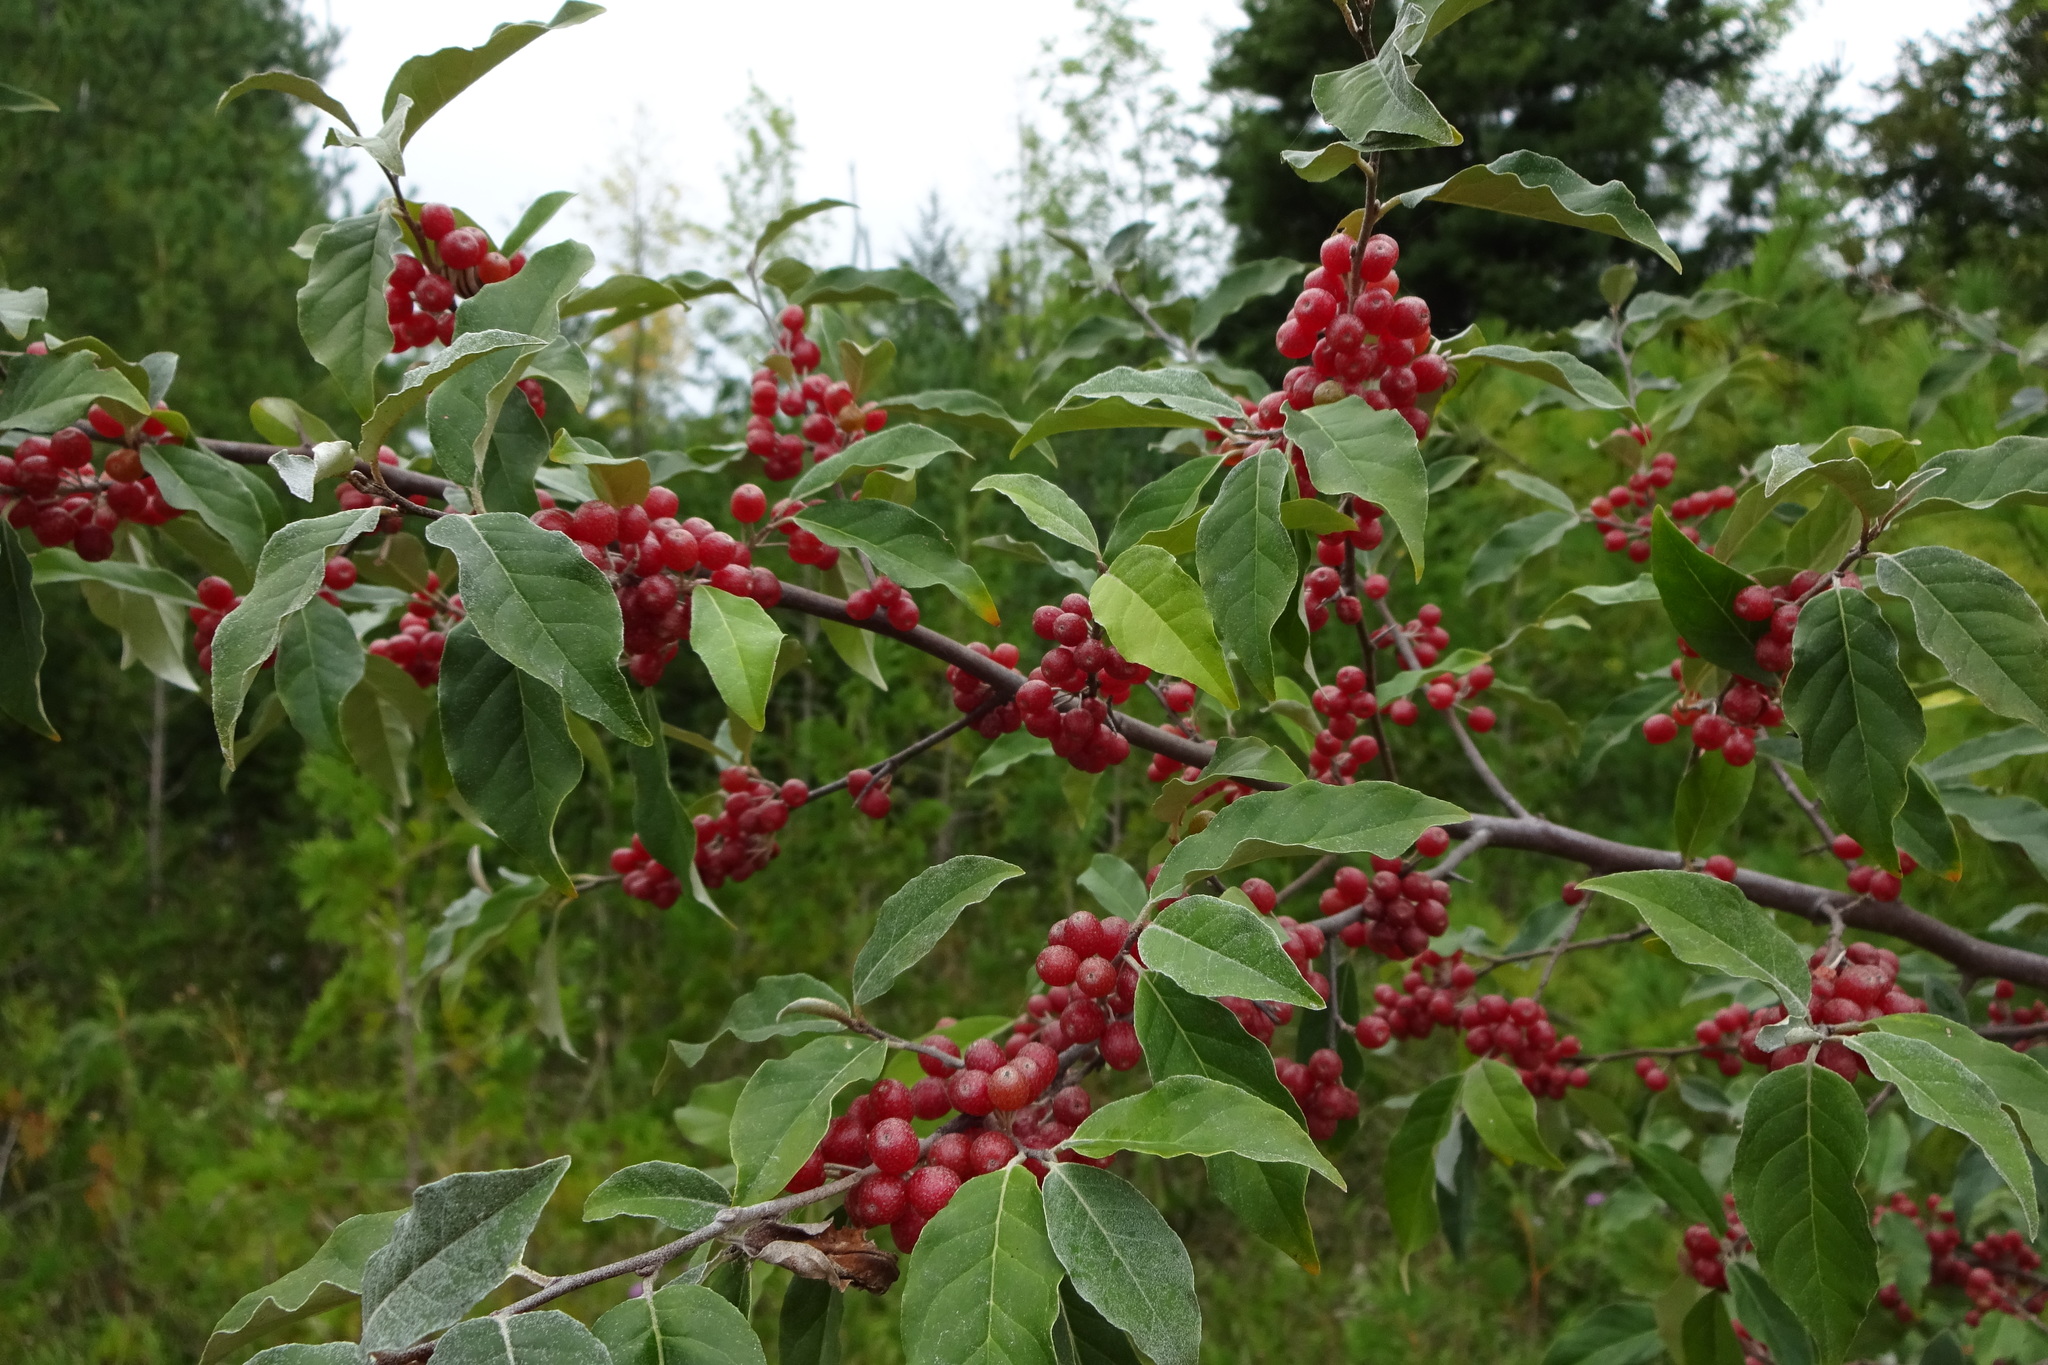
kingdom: Plantae
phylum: Tracheophyta
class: Magnoliopsida
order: Rosales
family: Elaeagnaceae
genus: Elaeagnus
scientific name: Elaeagnus umbellata
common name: Autumn olive
